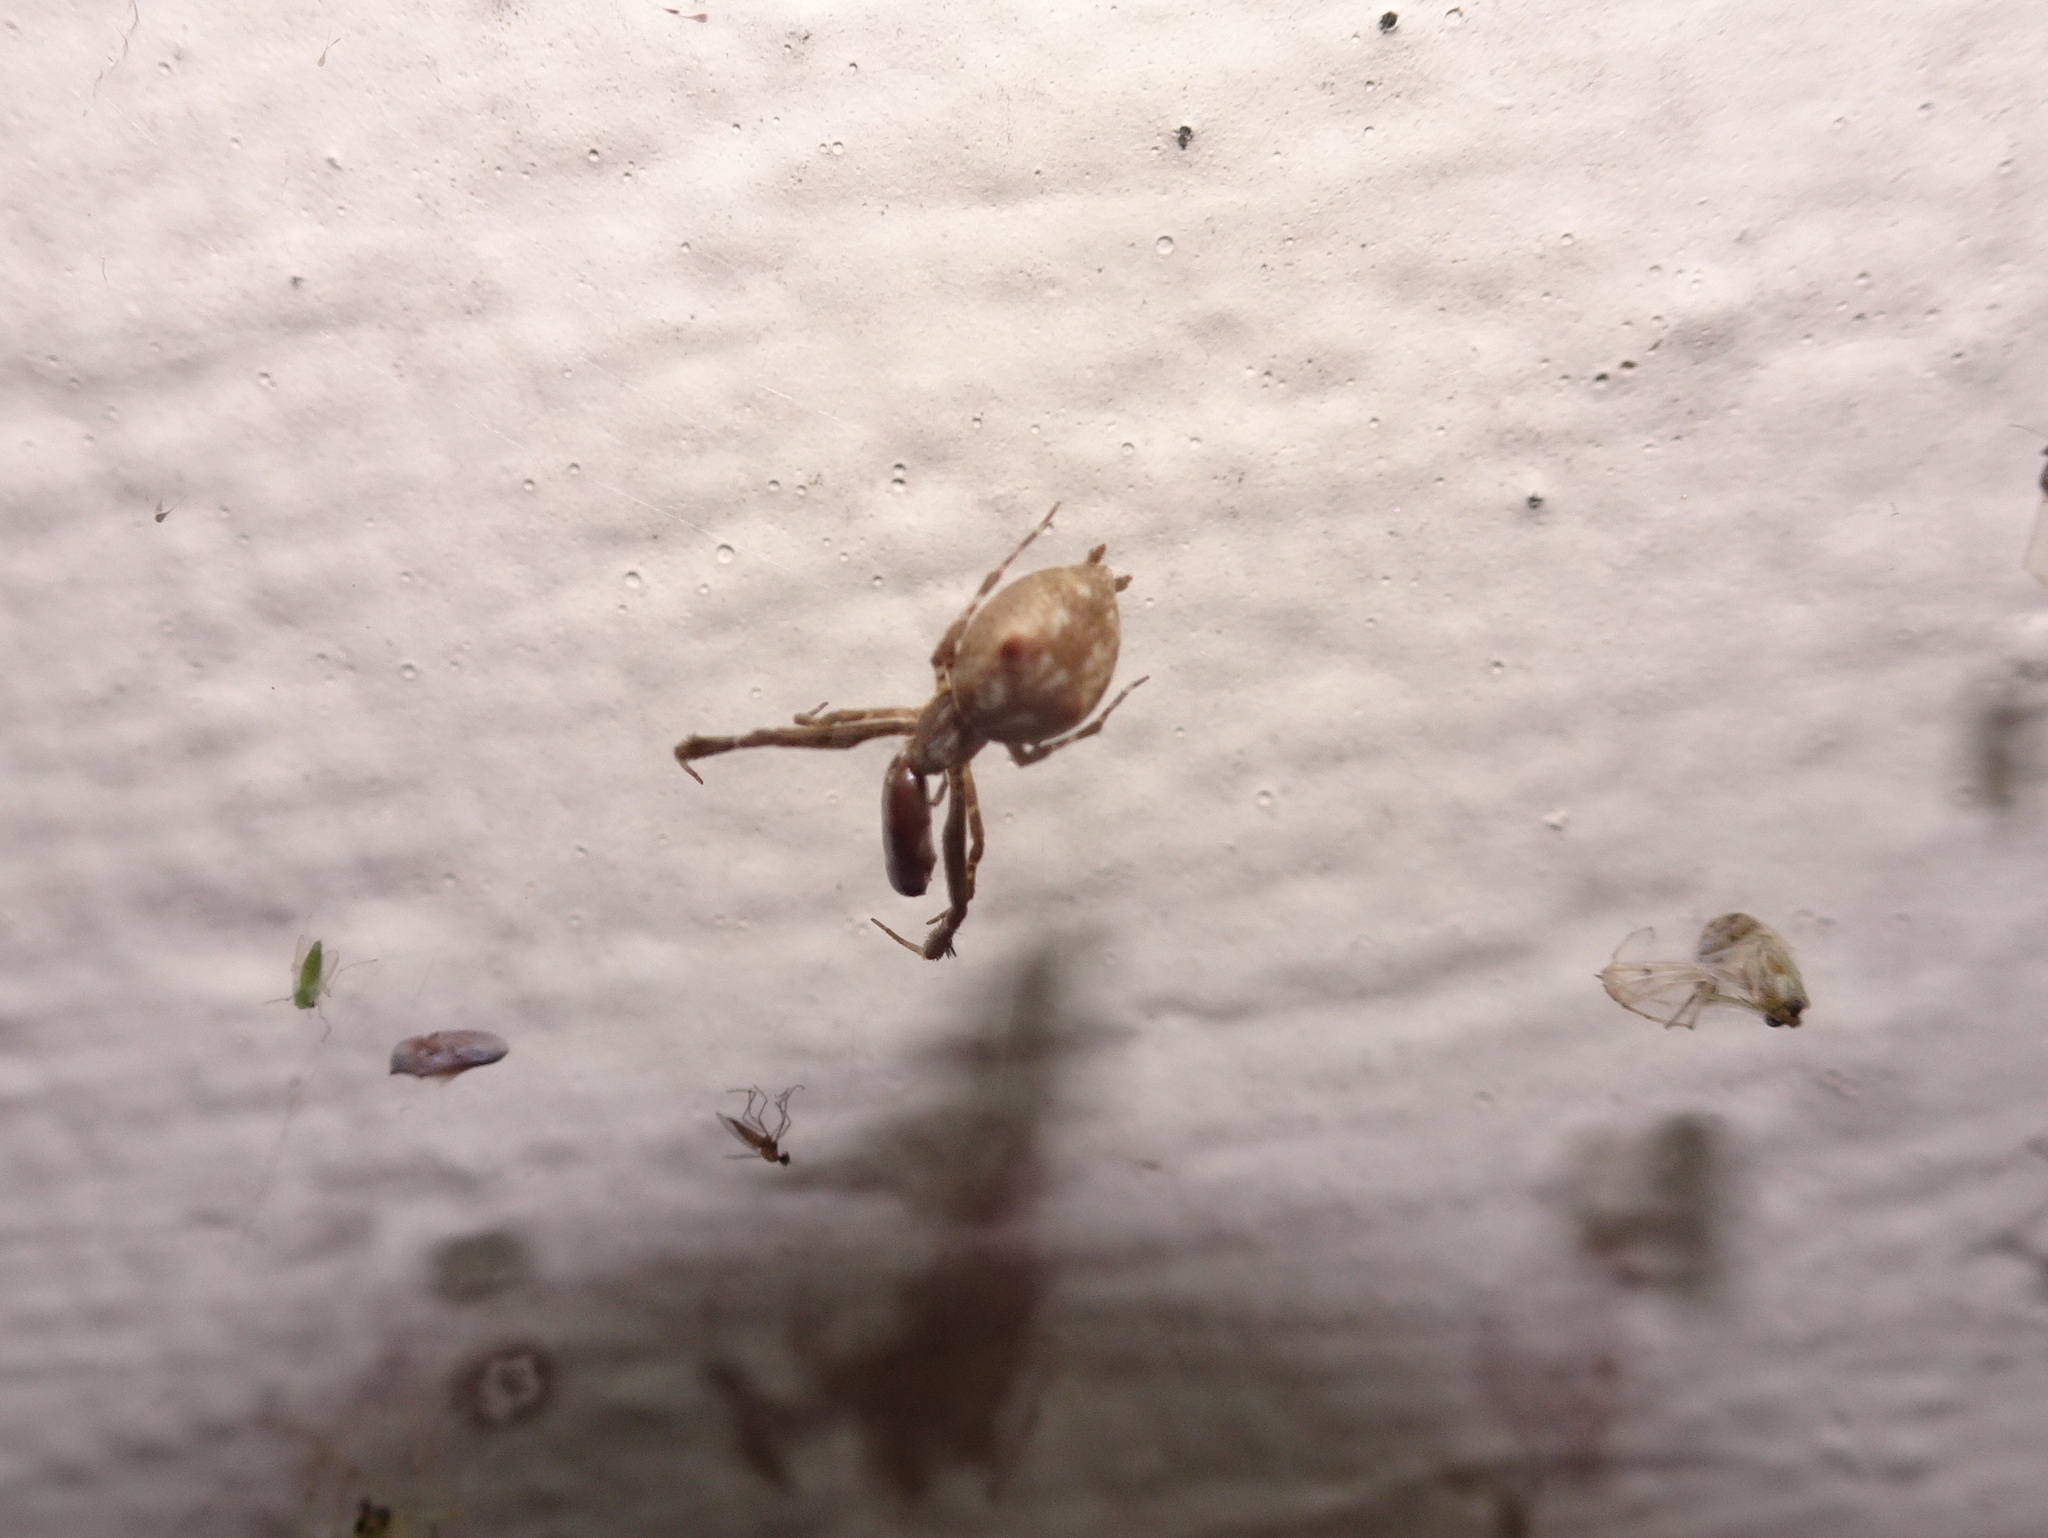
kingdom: Animalia
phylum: Arthropoda
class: Arachnida
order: Araneae
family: Uloboridae
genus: Uloborus
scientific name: Uloborus glomosus
